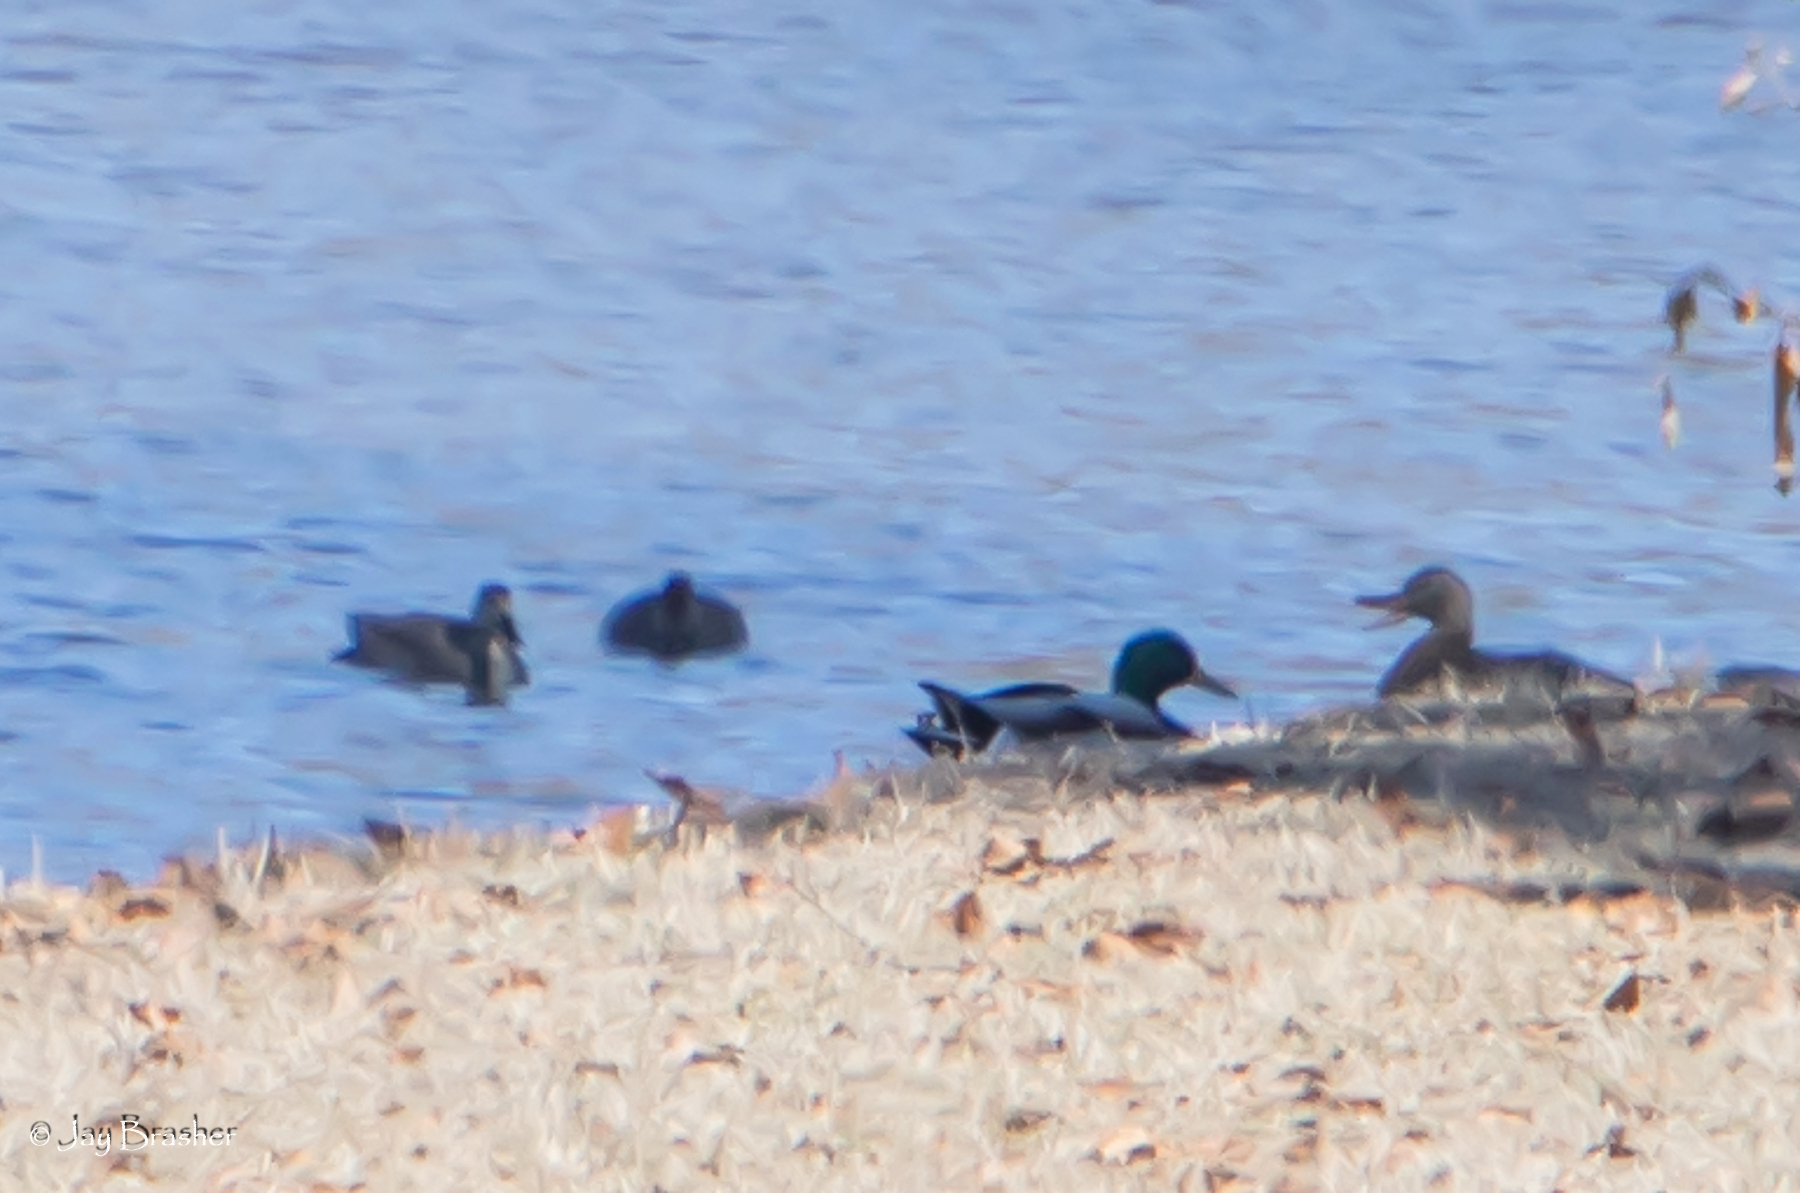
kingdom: Animalia
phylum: Chordata
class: Aves
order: Anseriformes
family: Anatidae
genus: Anas
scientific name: Anas platyrhynchos
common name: Mallard
